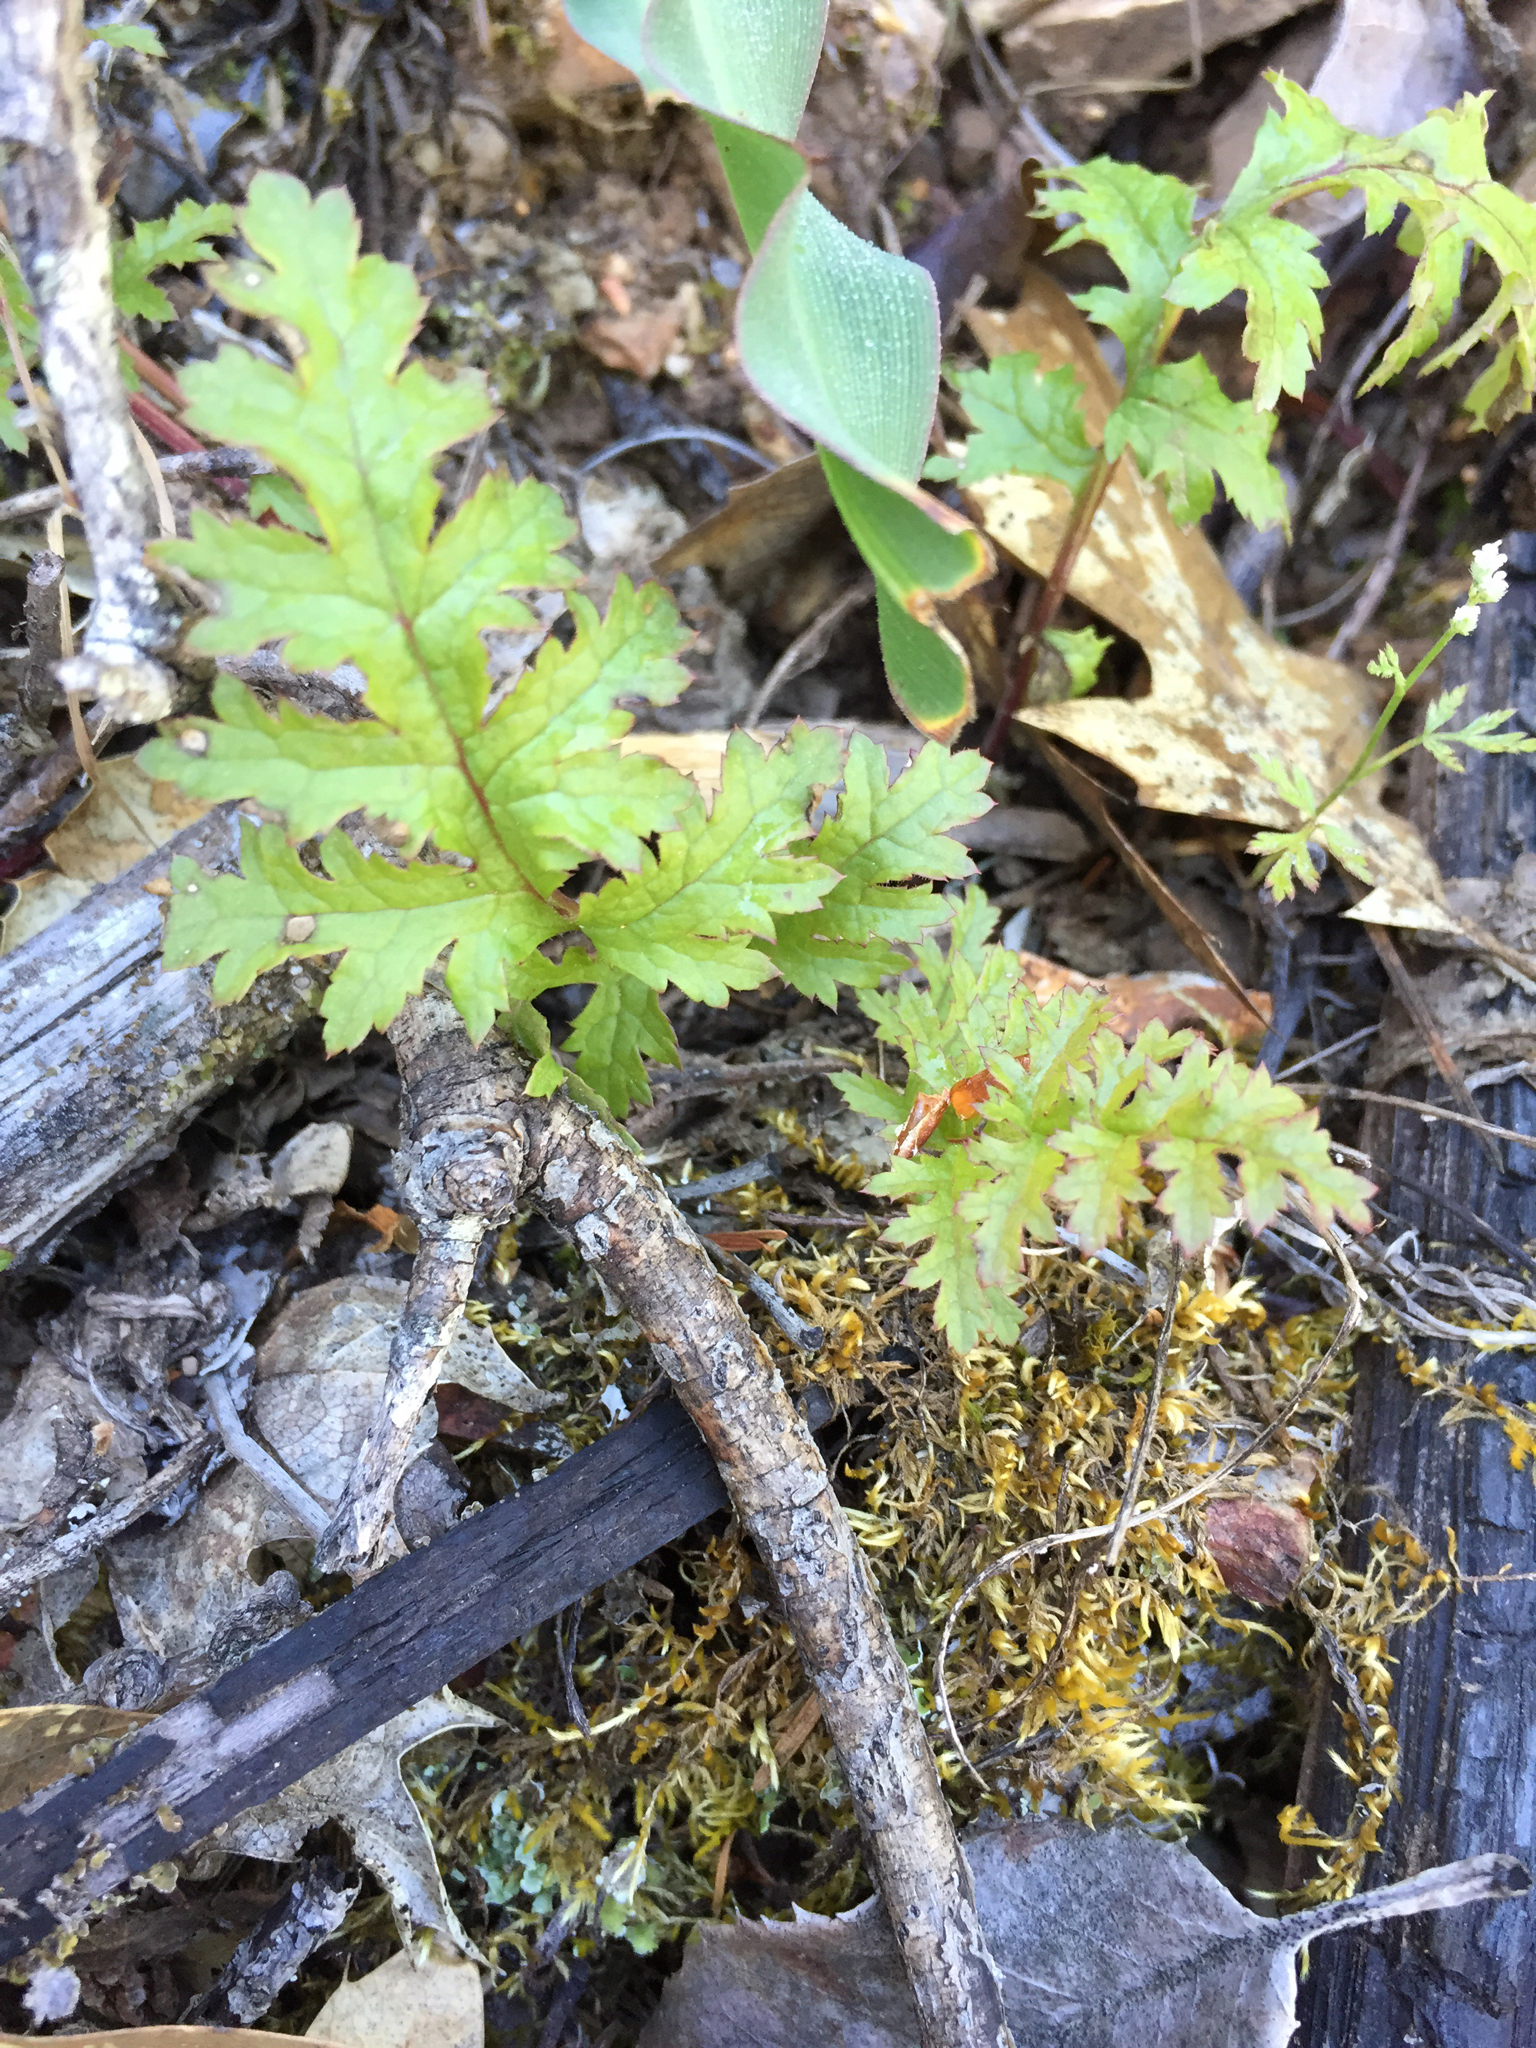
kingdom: Plantae
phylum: Tracheophyta
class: Magnoliopsida
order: Lamiales
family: Orobanchaceae
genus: Pedicularis
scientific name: Pedicularis densiflora
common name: Indian warrior
